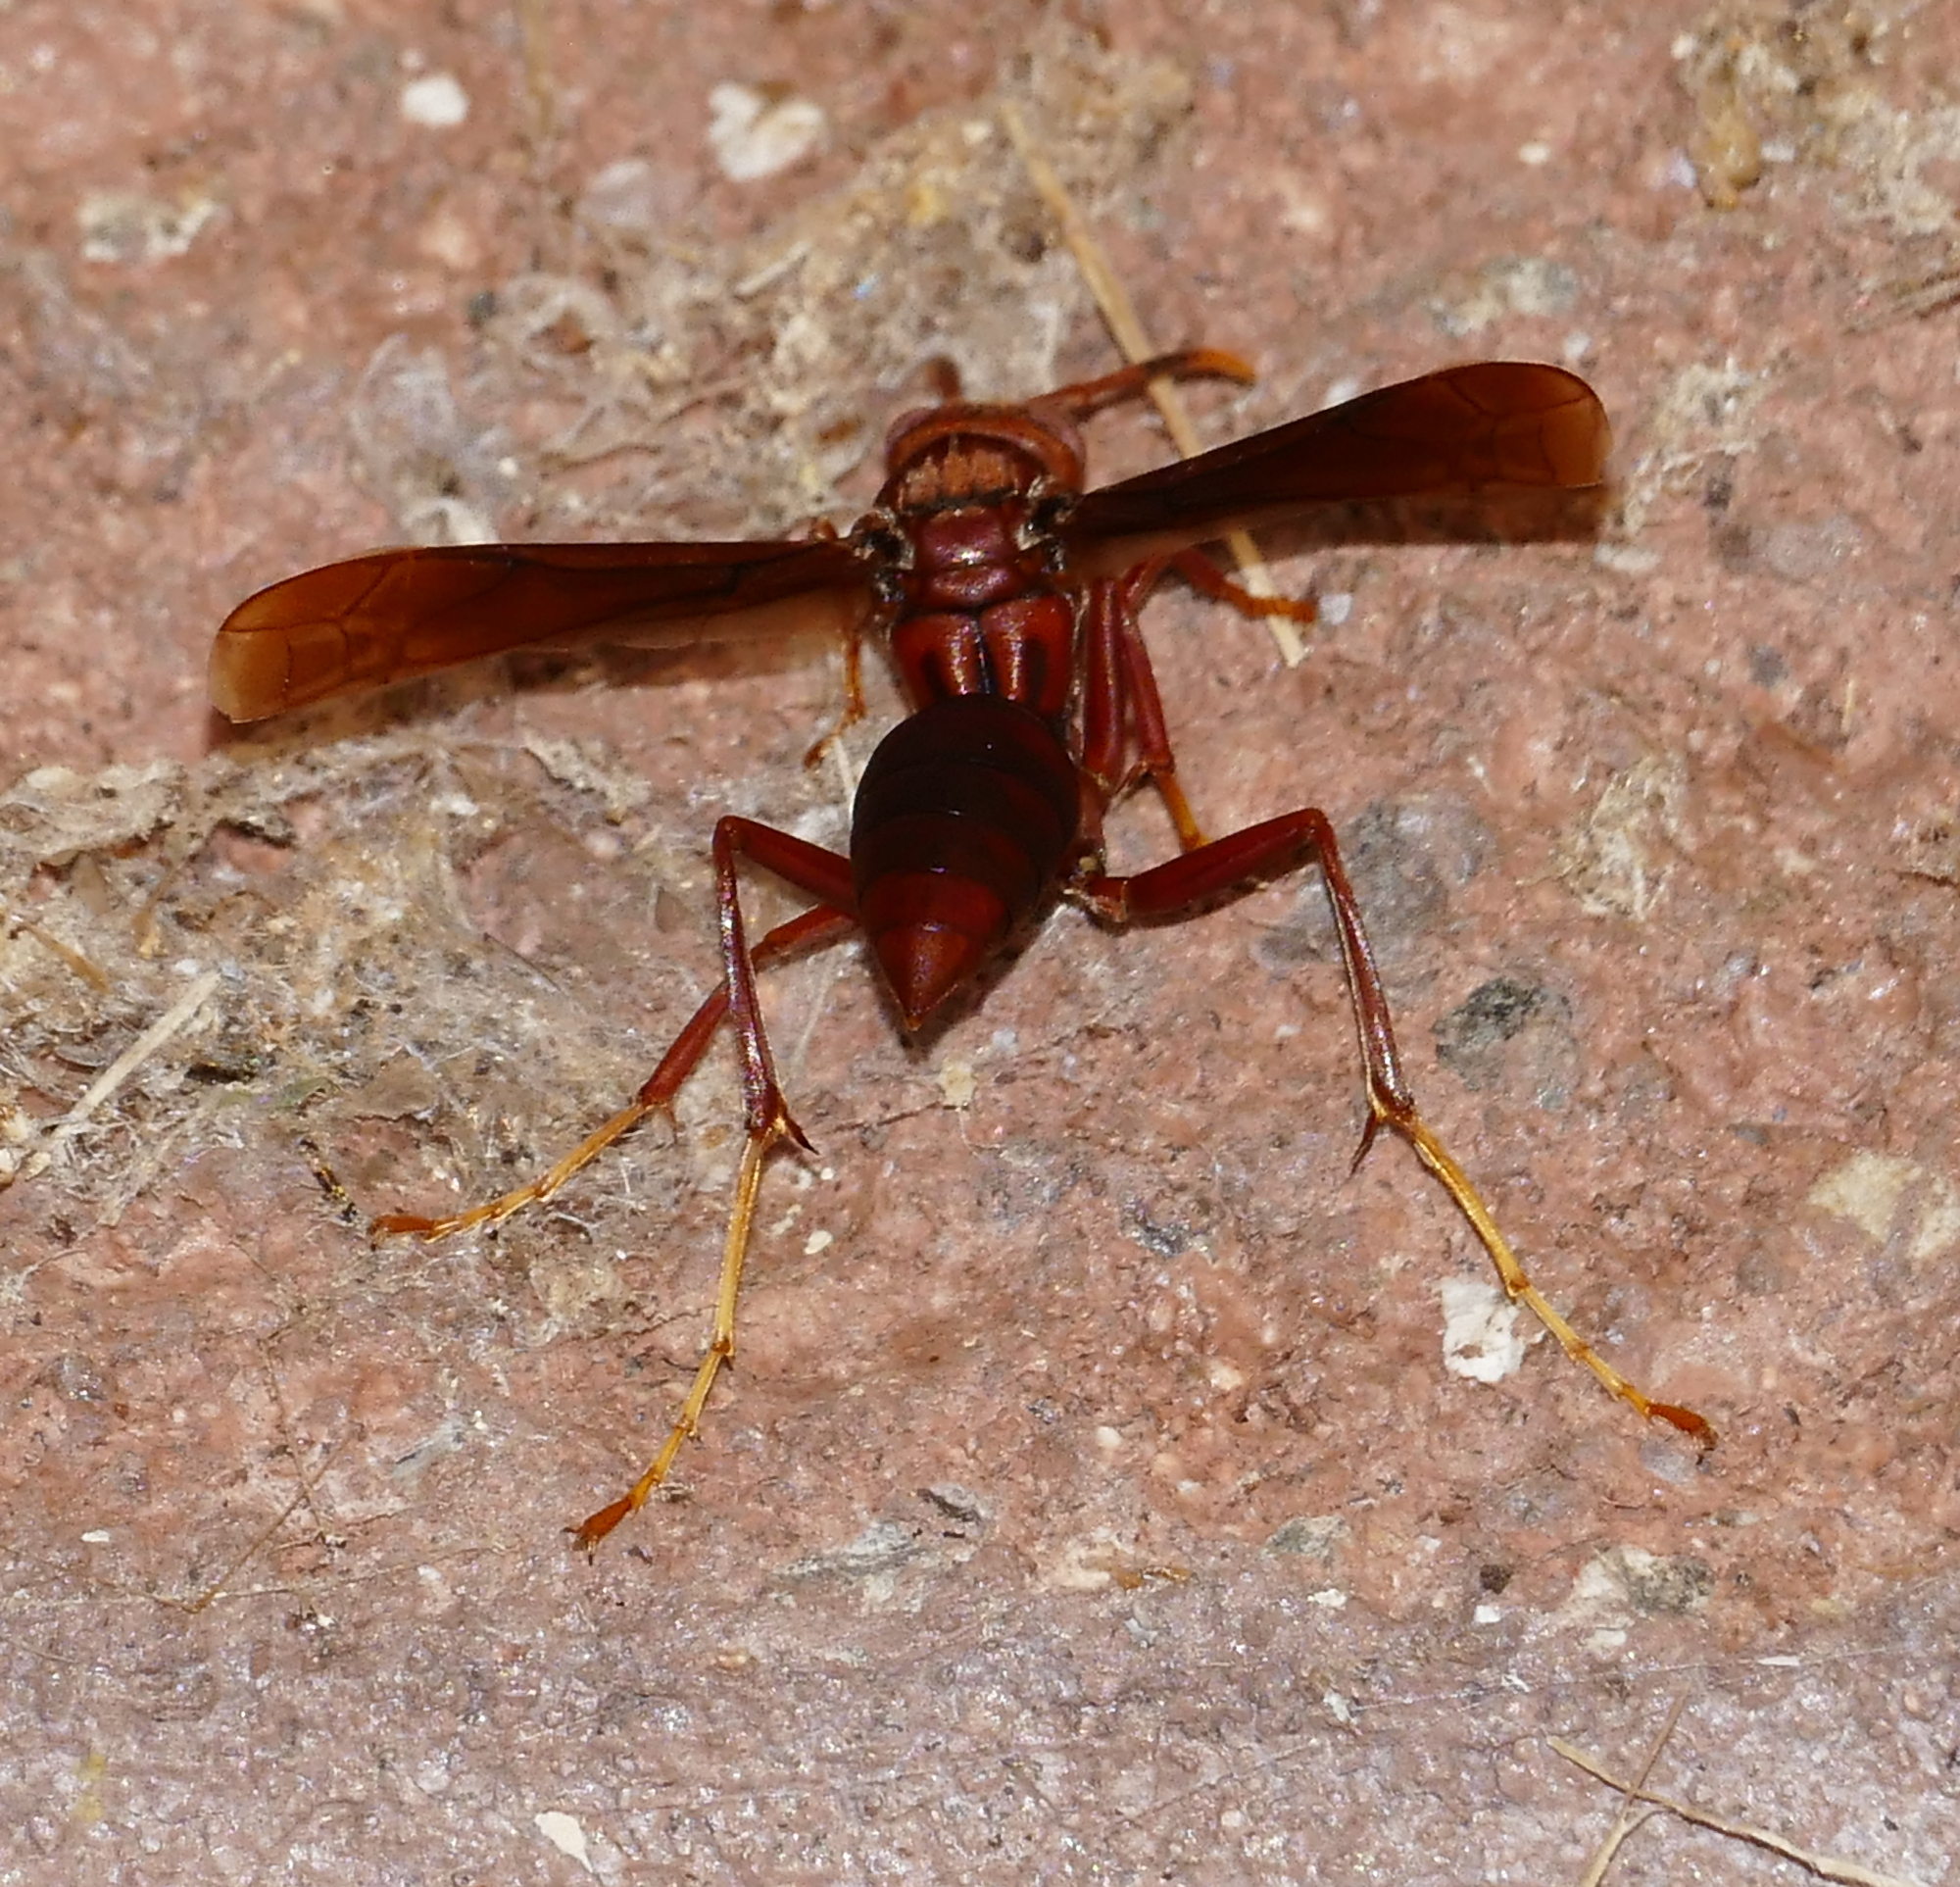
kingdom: Animalia
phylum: Arthropoda
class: Insecta
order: Hymenoptera
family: Eumenidae
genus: Polistes
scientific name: Polistes major
